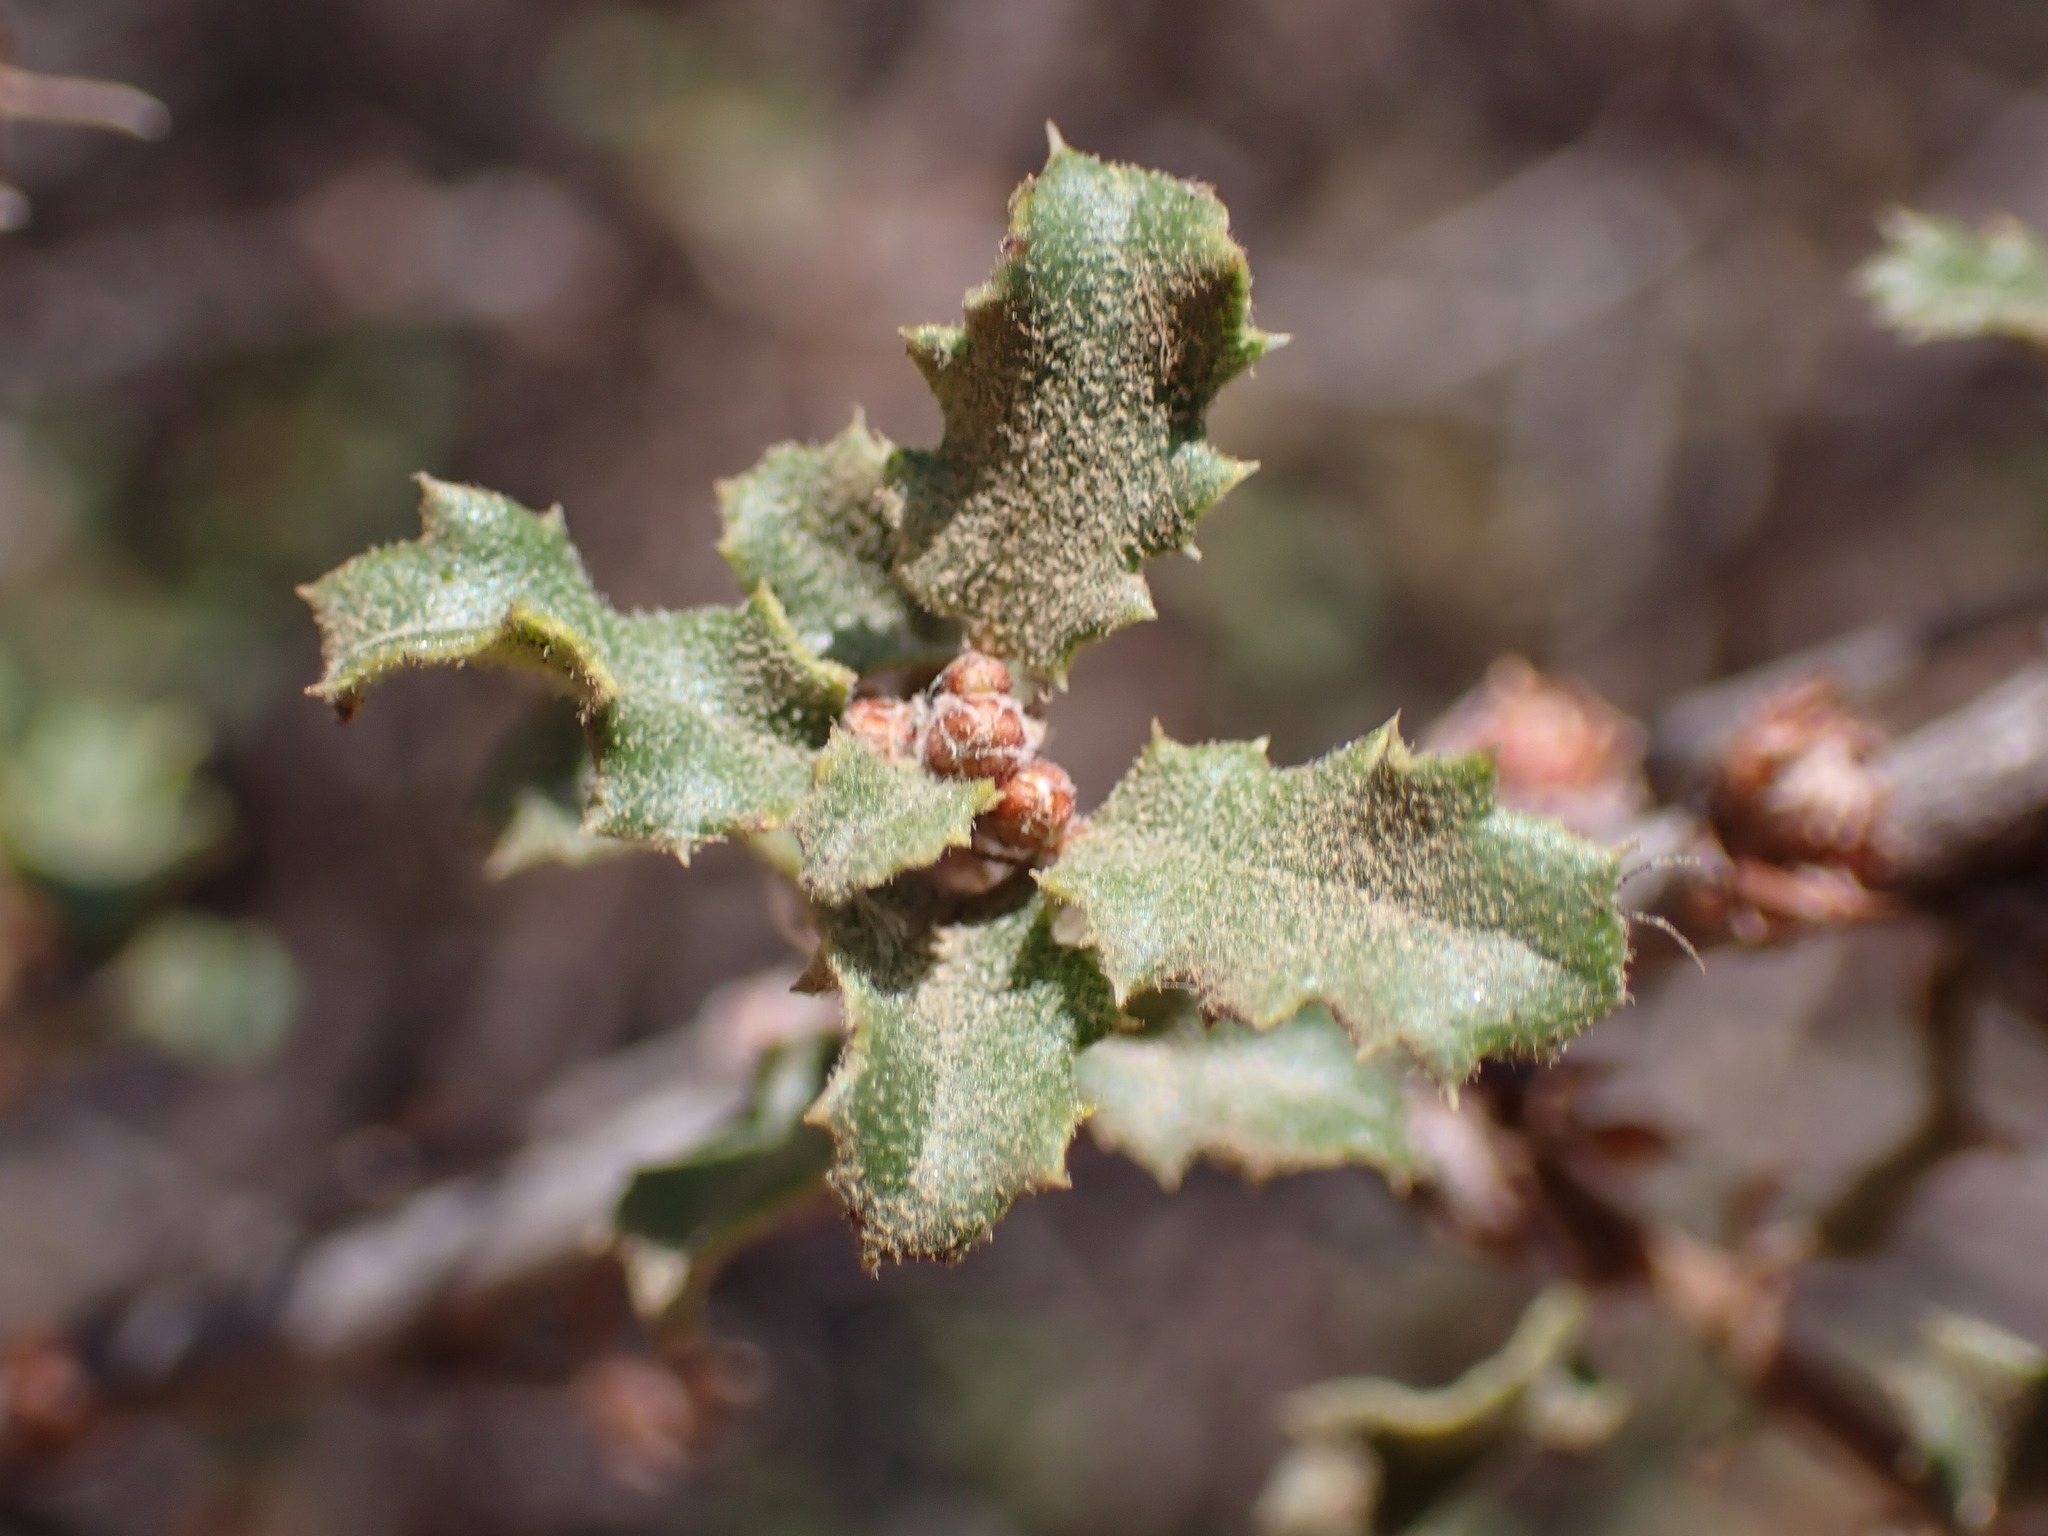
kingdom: Plantae
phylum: Tracheophyta
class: Magnoliopsida
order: Fagales
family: Fagaceae
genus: Quercus
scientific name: Quercus dumosa
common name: Coastal sage scrub oak
